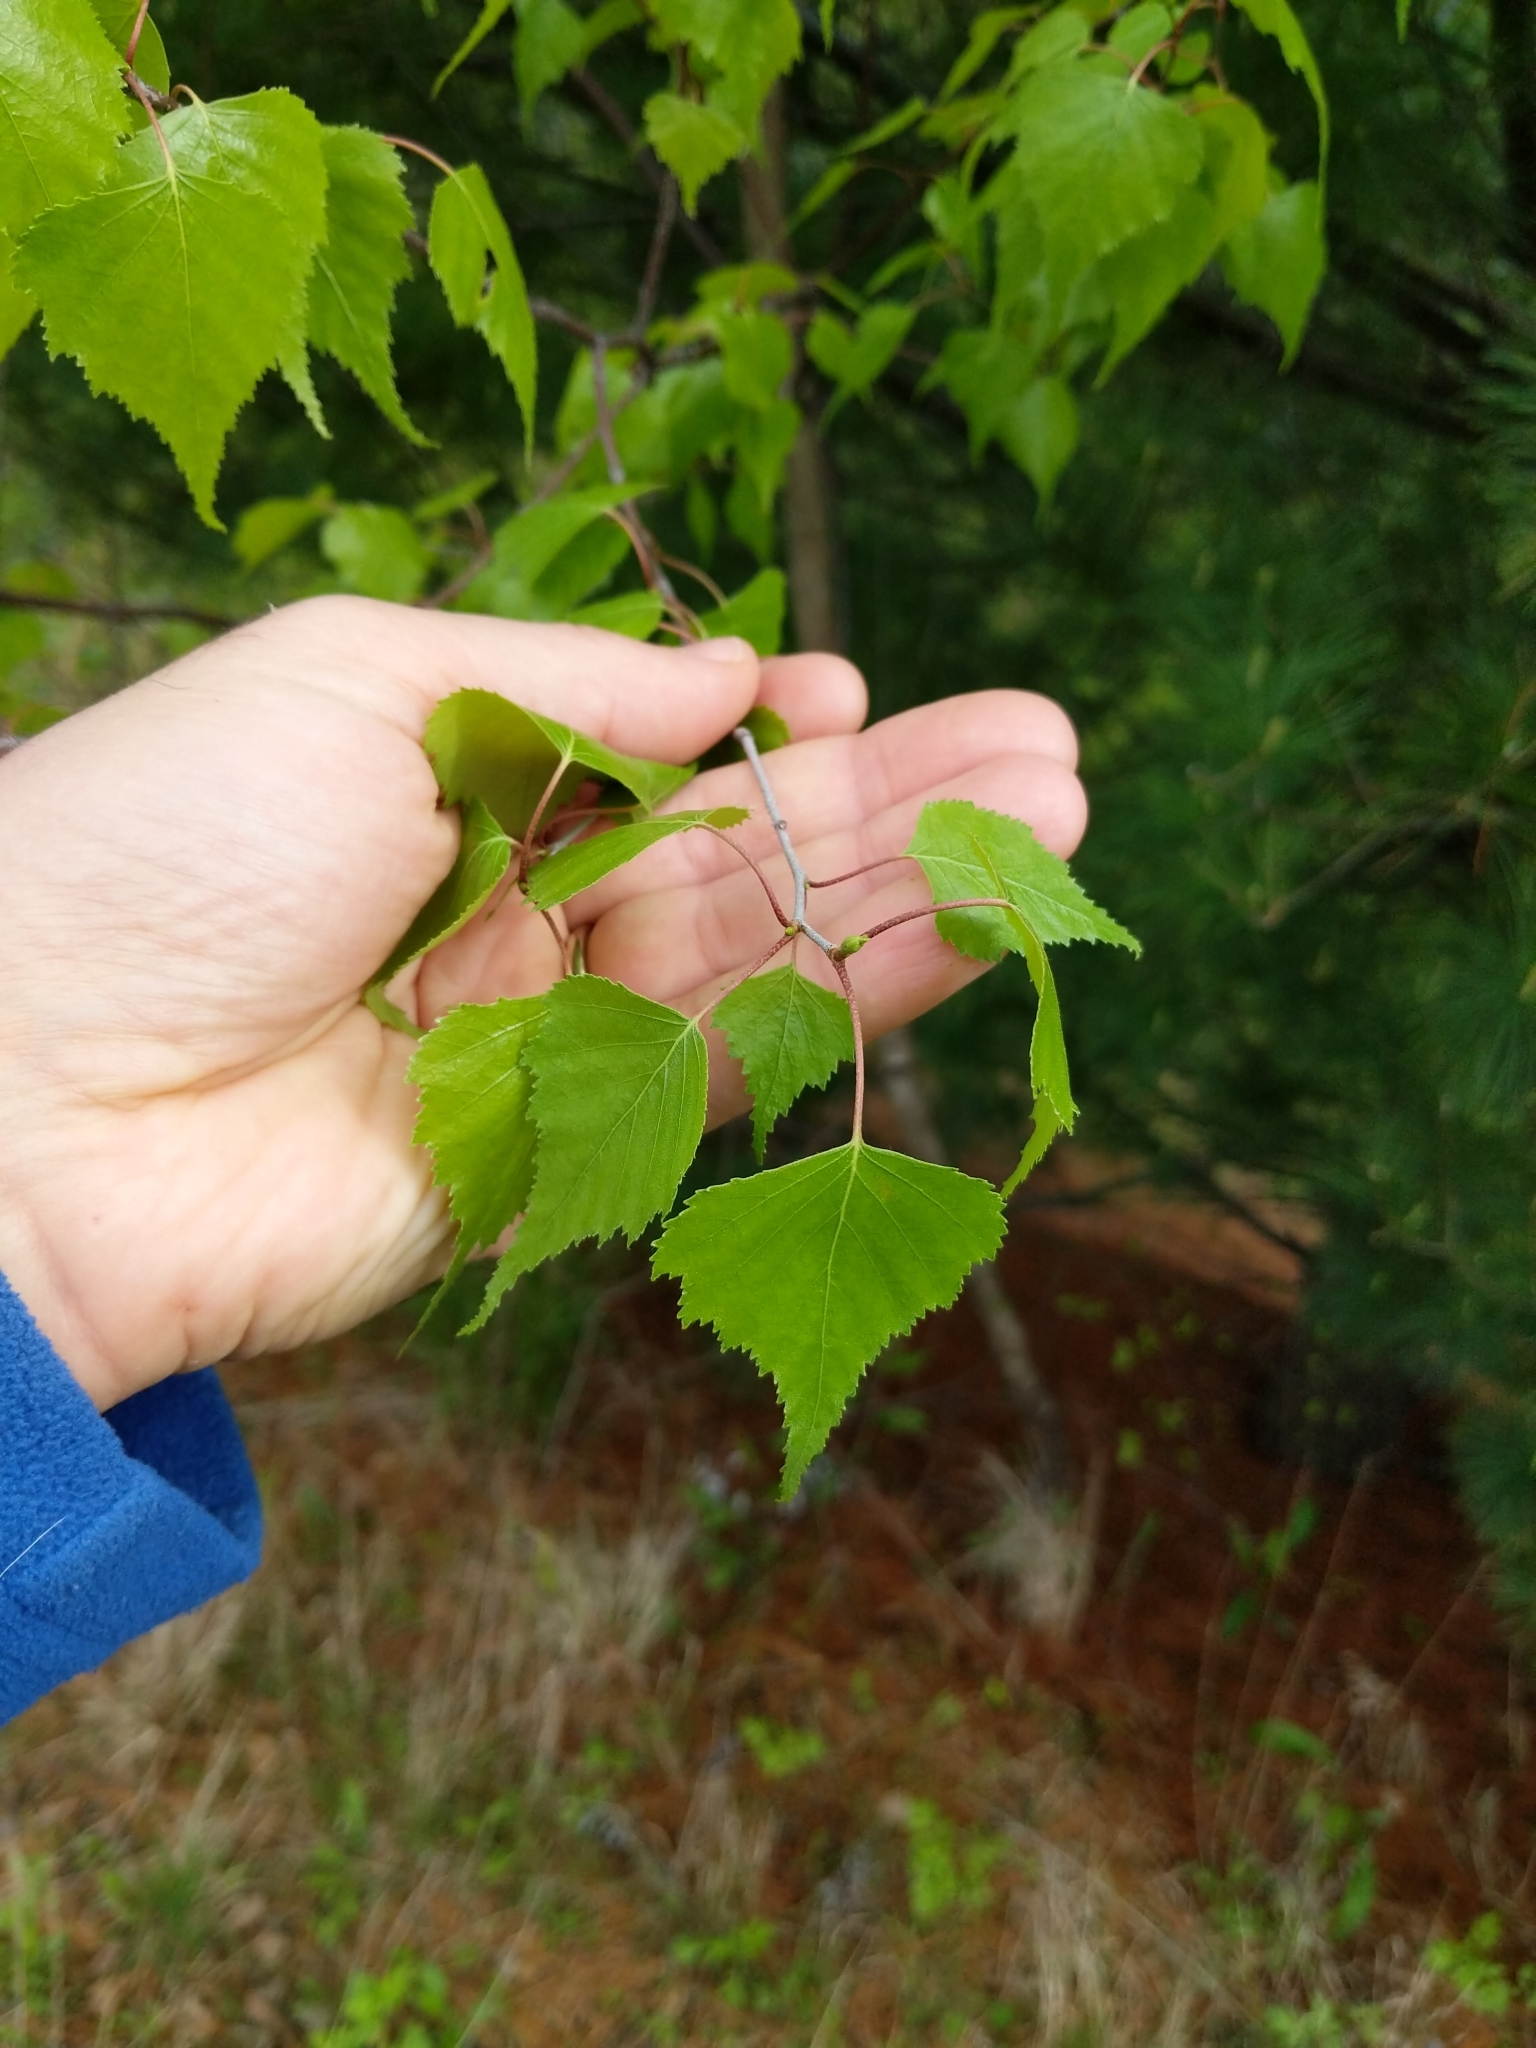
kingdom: Plantae
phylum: Tracheophyta
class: Magnoliopsida
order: Fagales
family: Betulaceae
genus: Betula
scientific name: Betula populifolia
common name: Fire birch
